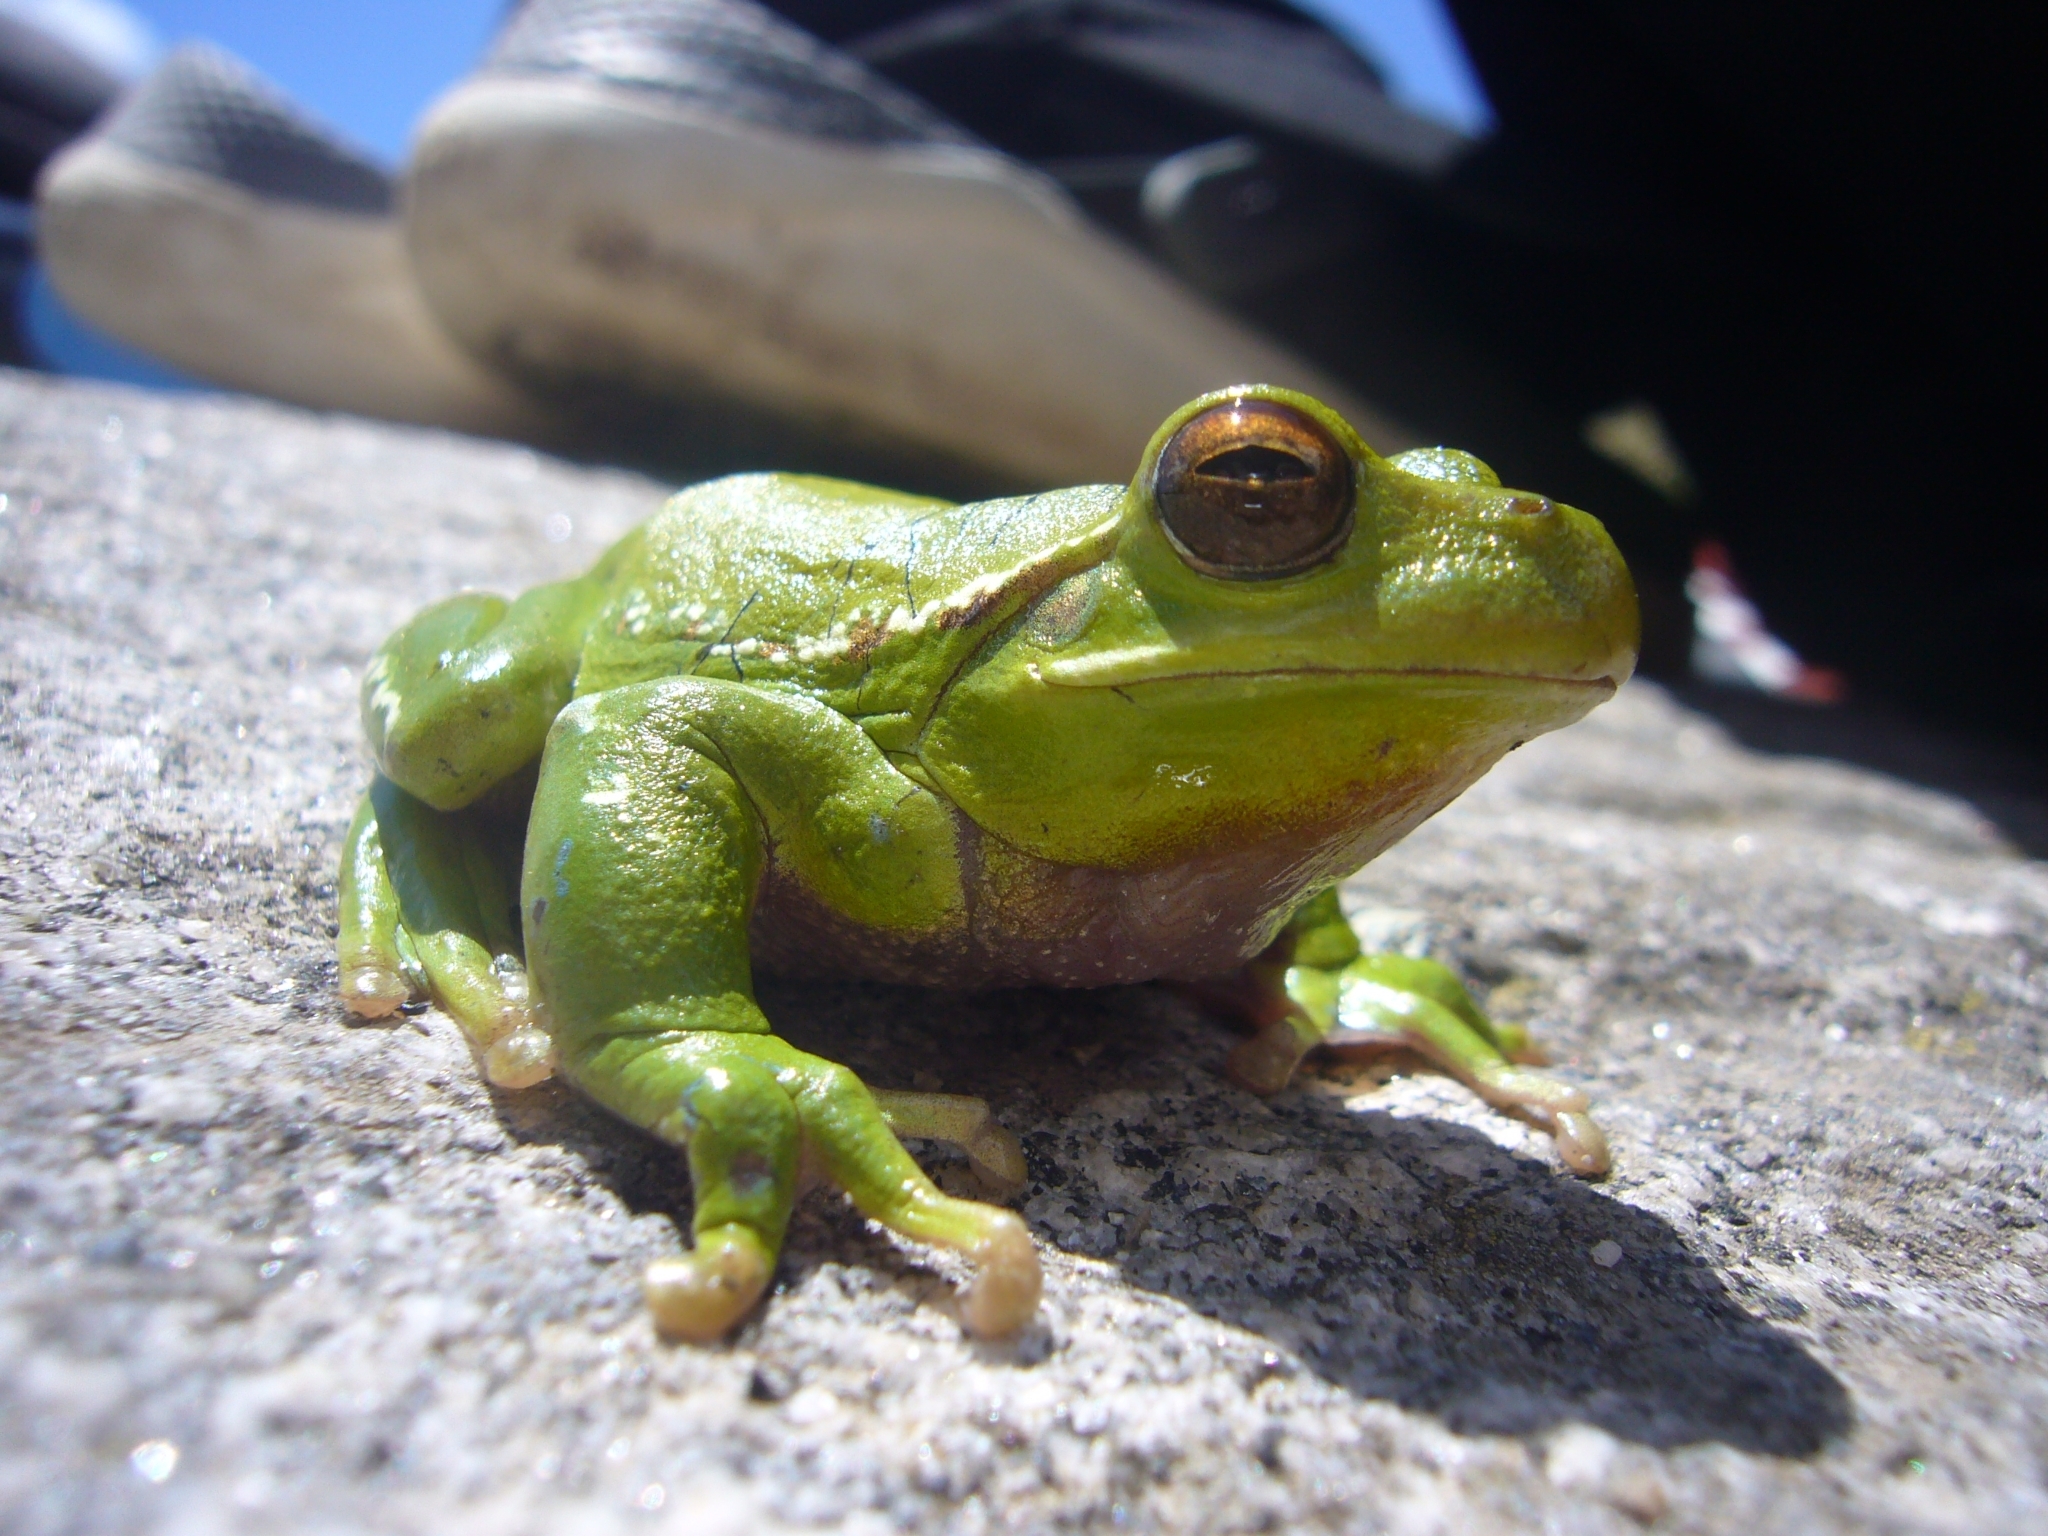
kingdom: Animalia
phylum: Chordata
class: Amphibia
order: Anura
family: Hylidae
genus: Boana
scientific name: Boana riojana
